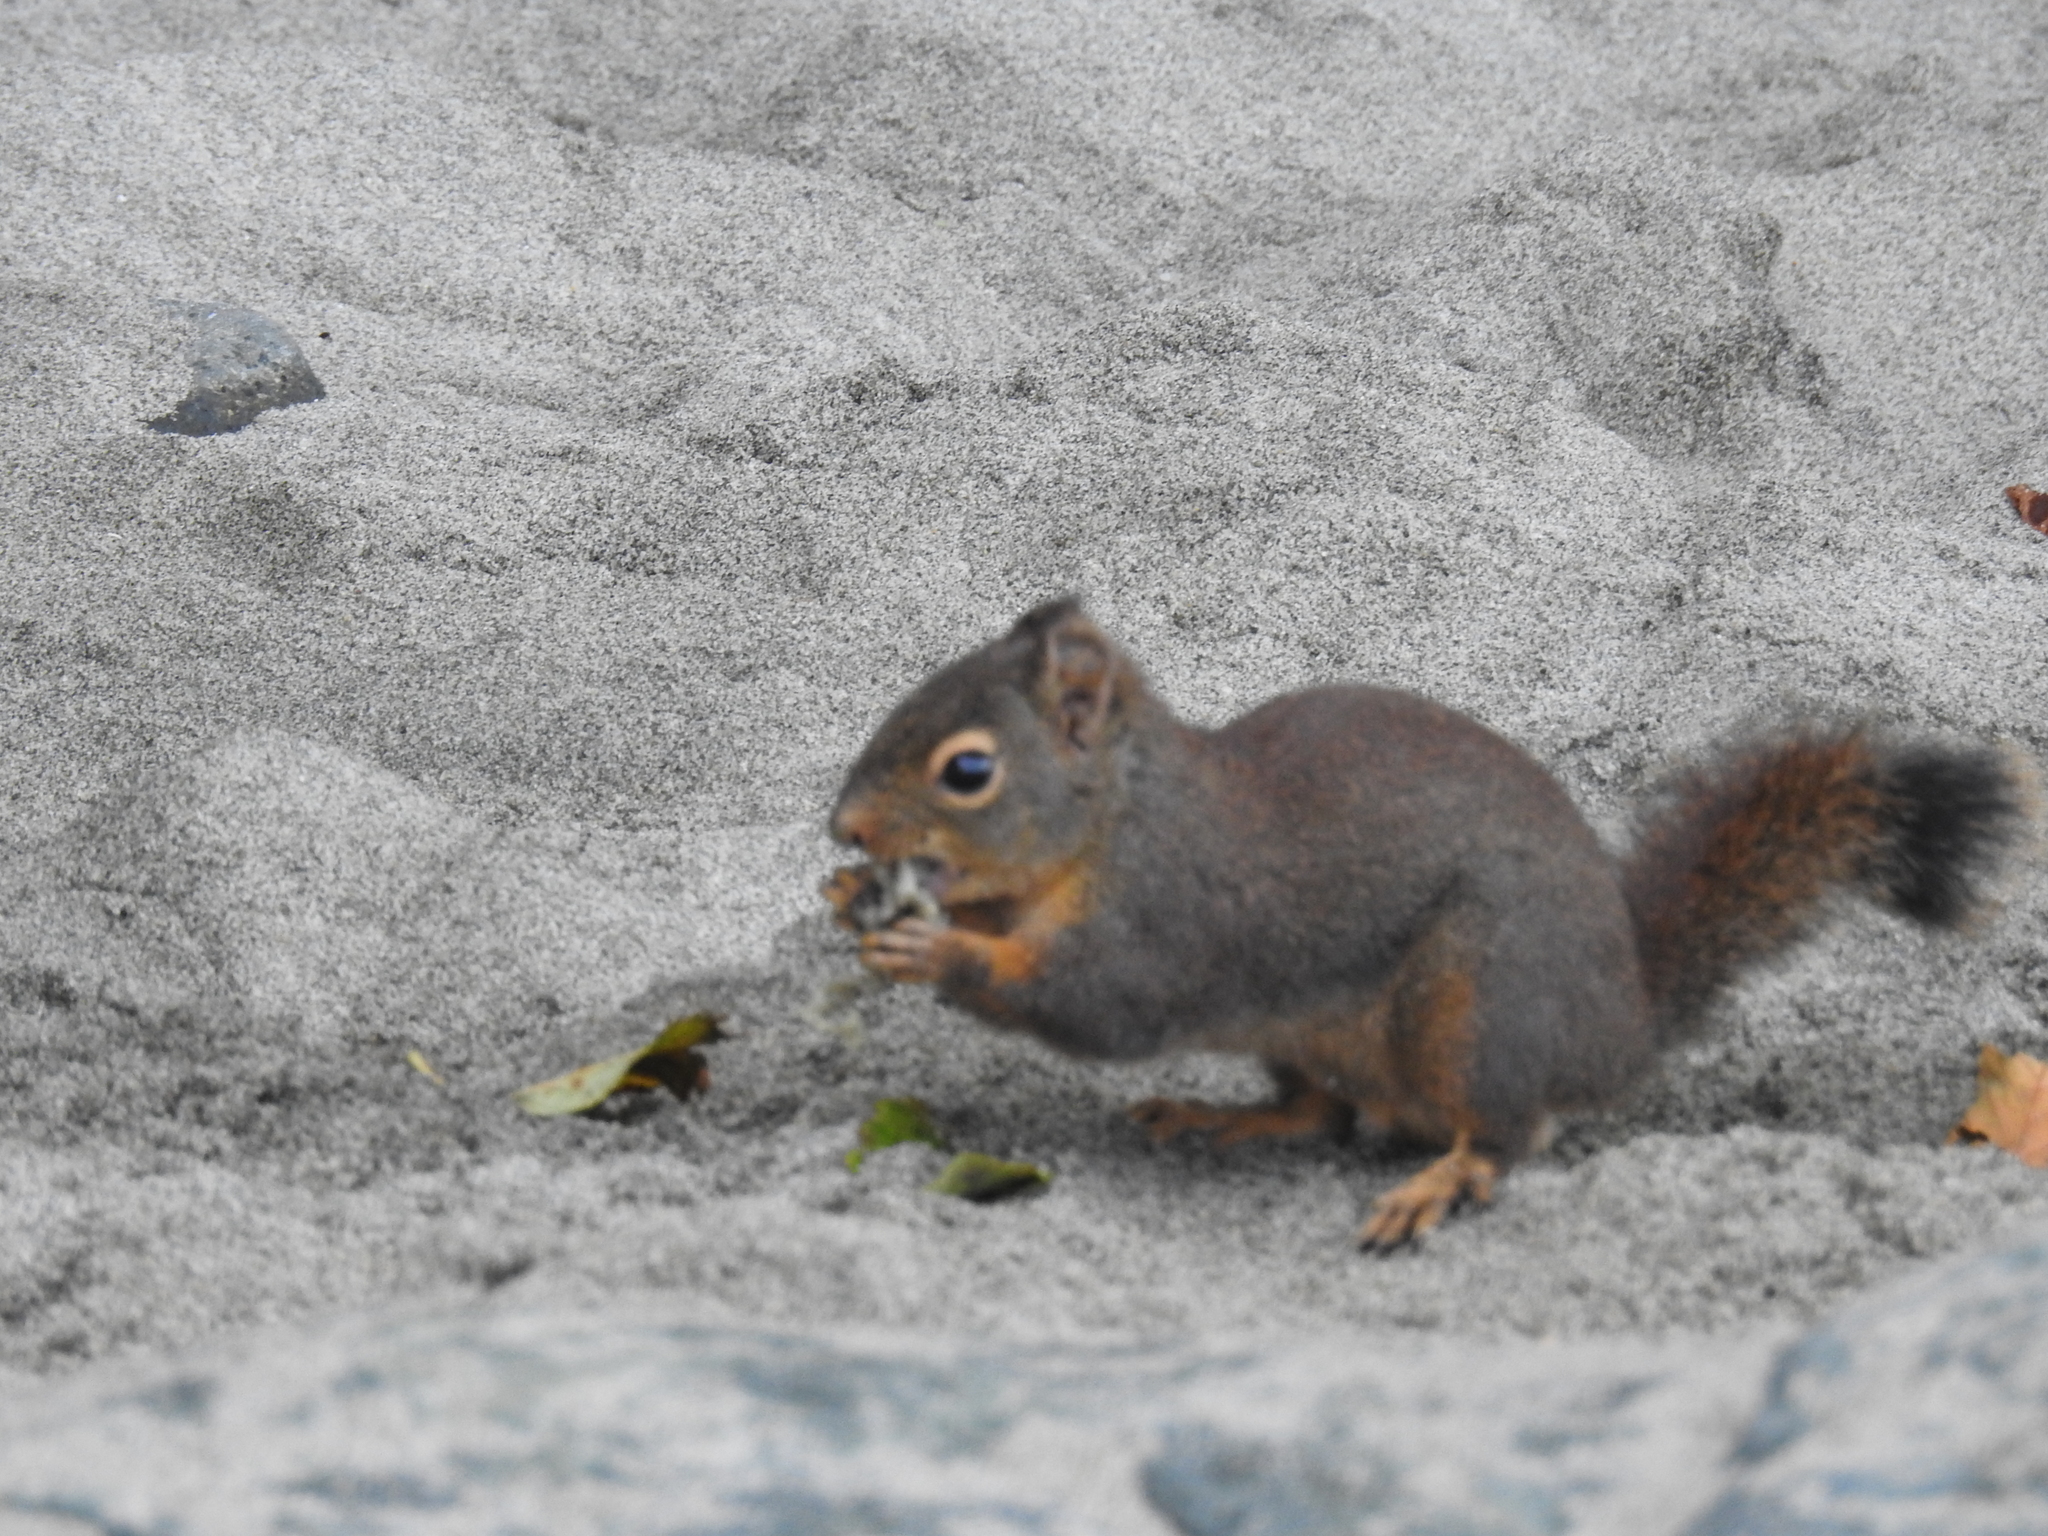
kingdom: Animalia
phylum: Chordata
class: Mammalia
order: Rodentia
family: Sciuridae
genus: Tamiasciurus
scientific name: Tamiasciurus douglasii
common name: Douglas's squirrel
